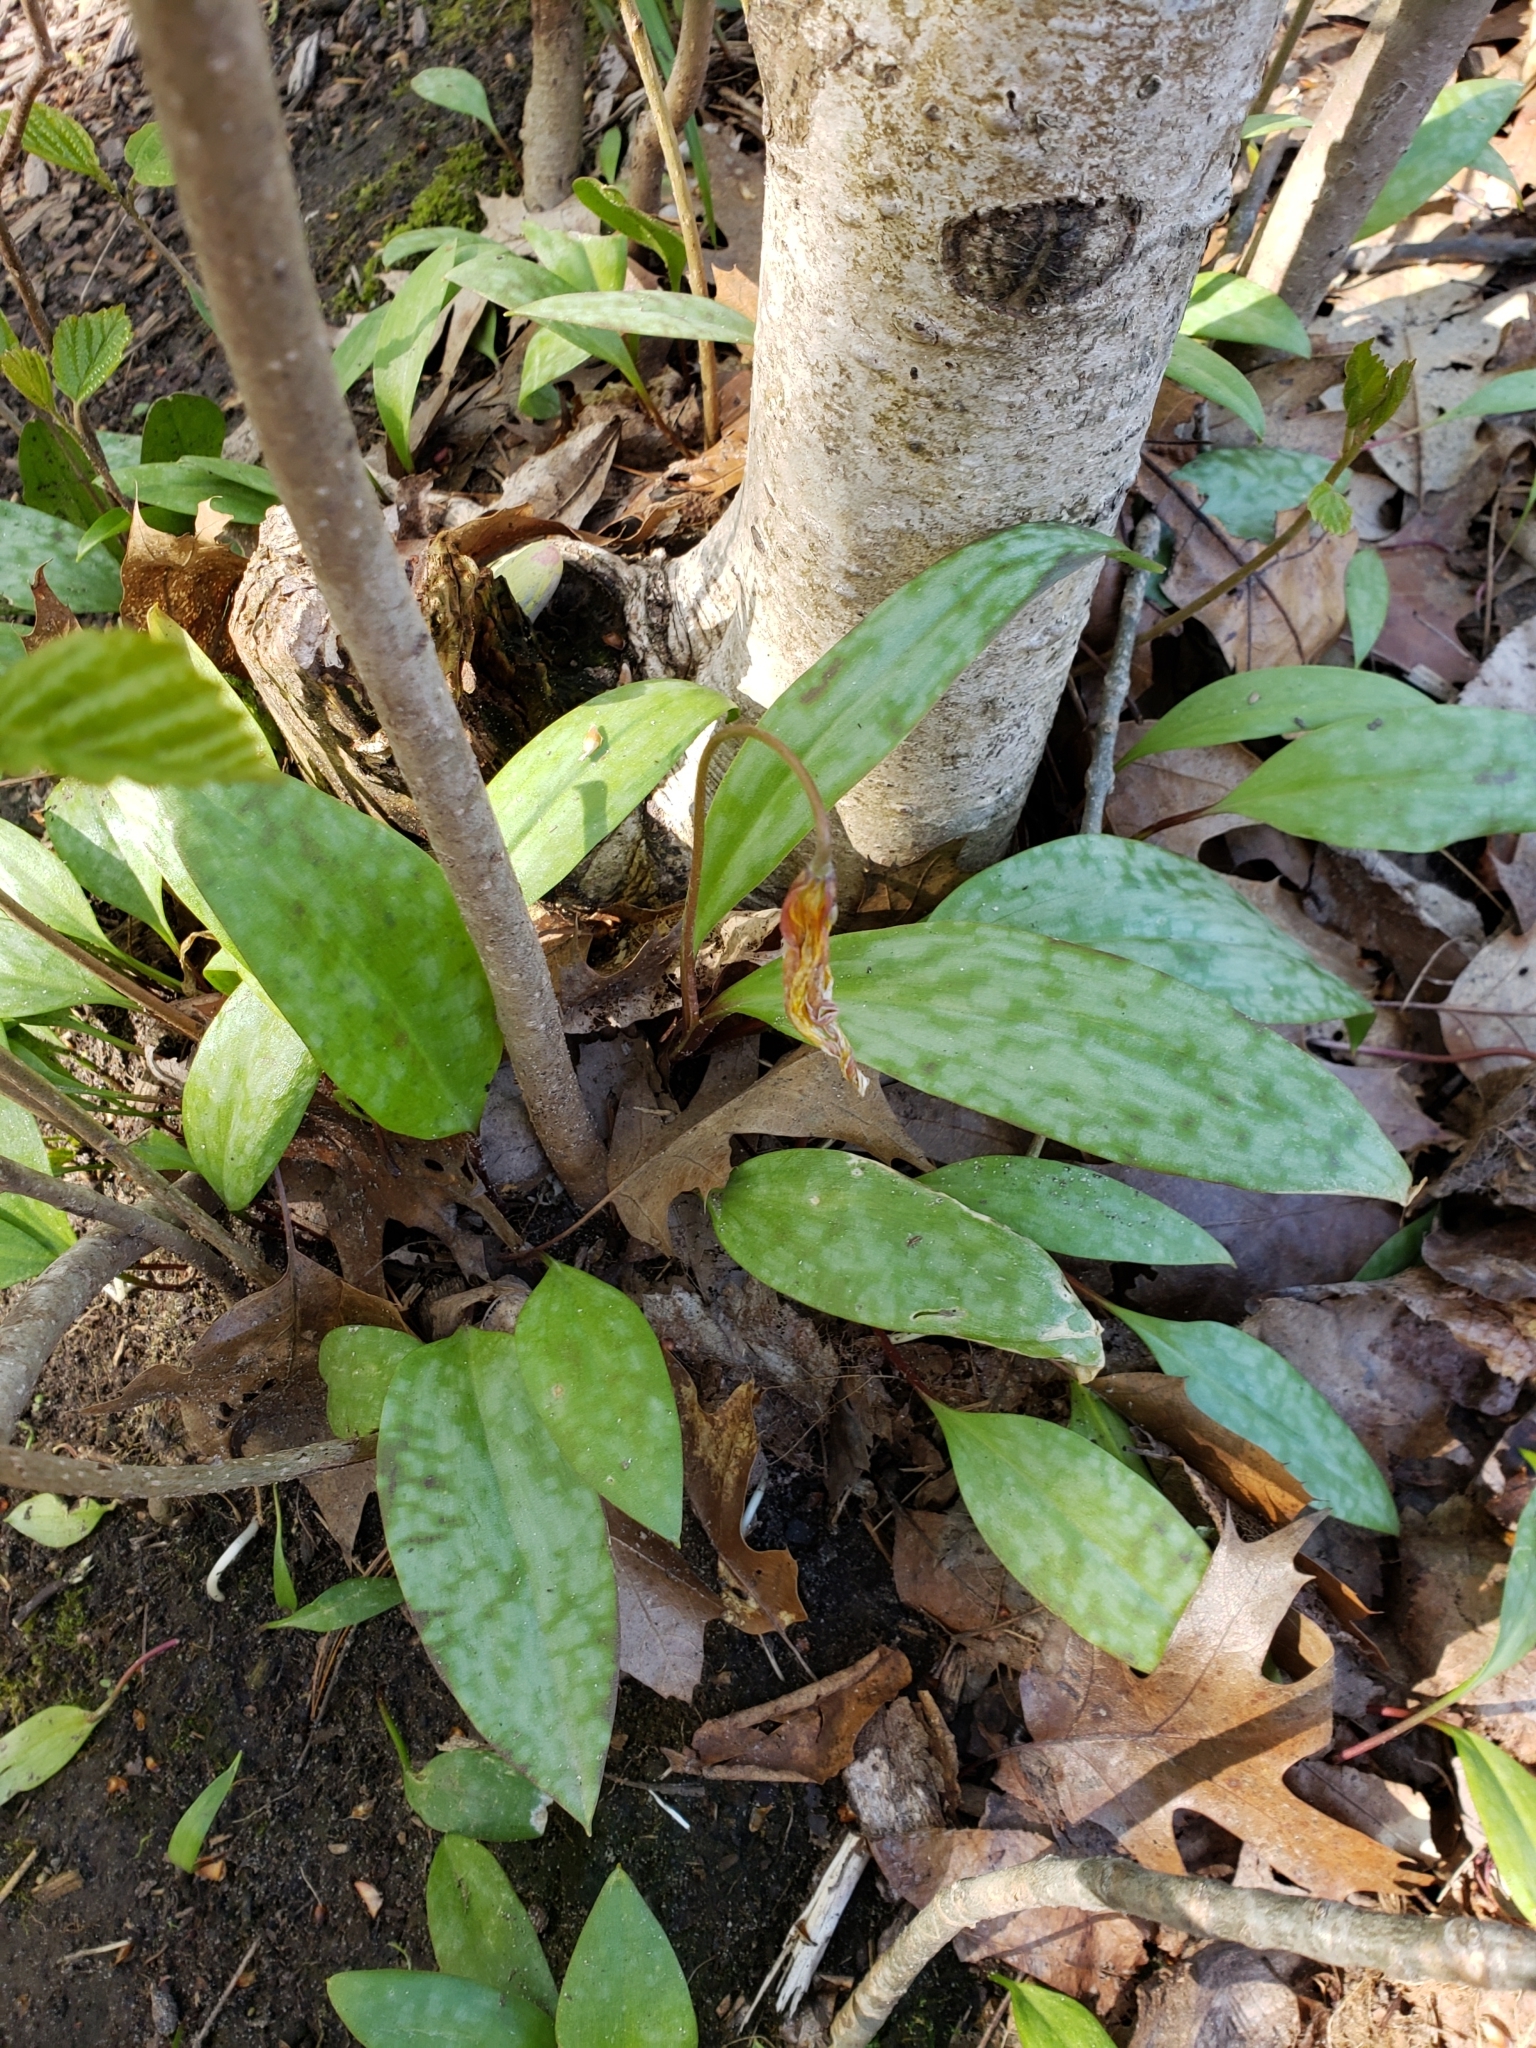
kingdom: Plantae
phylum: Tracheophyta
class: Liliopsida
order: Liliales
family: Liliaceae
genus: Erythronium
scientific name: Erythronium americanum
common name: Yellow adder's-tongue
